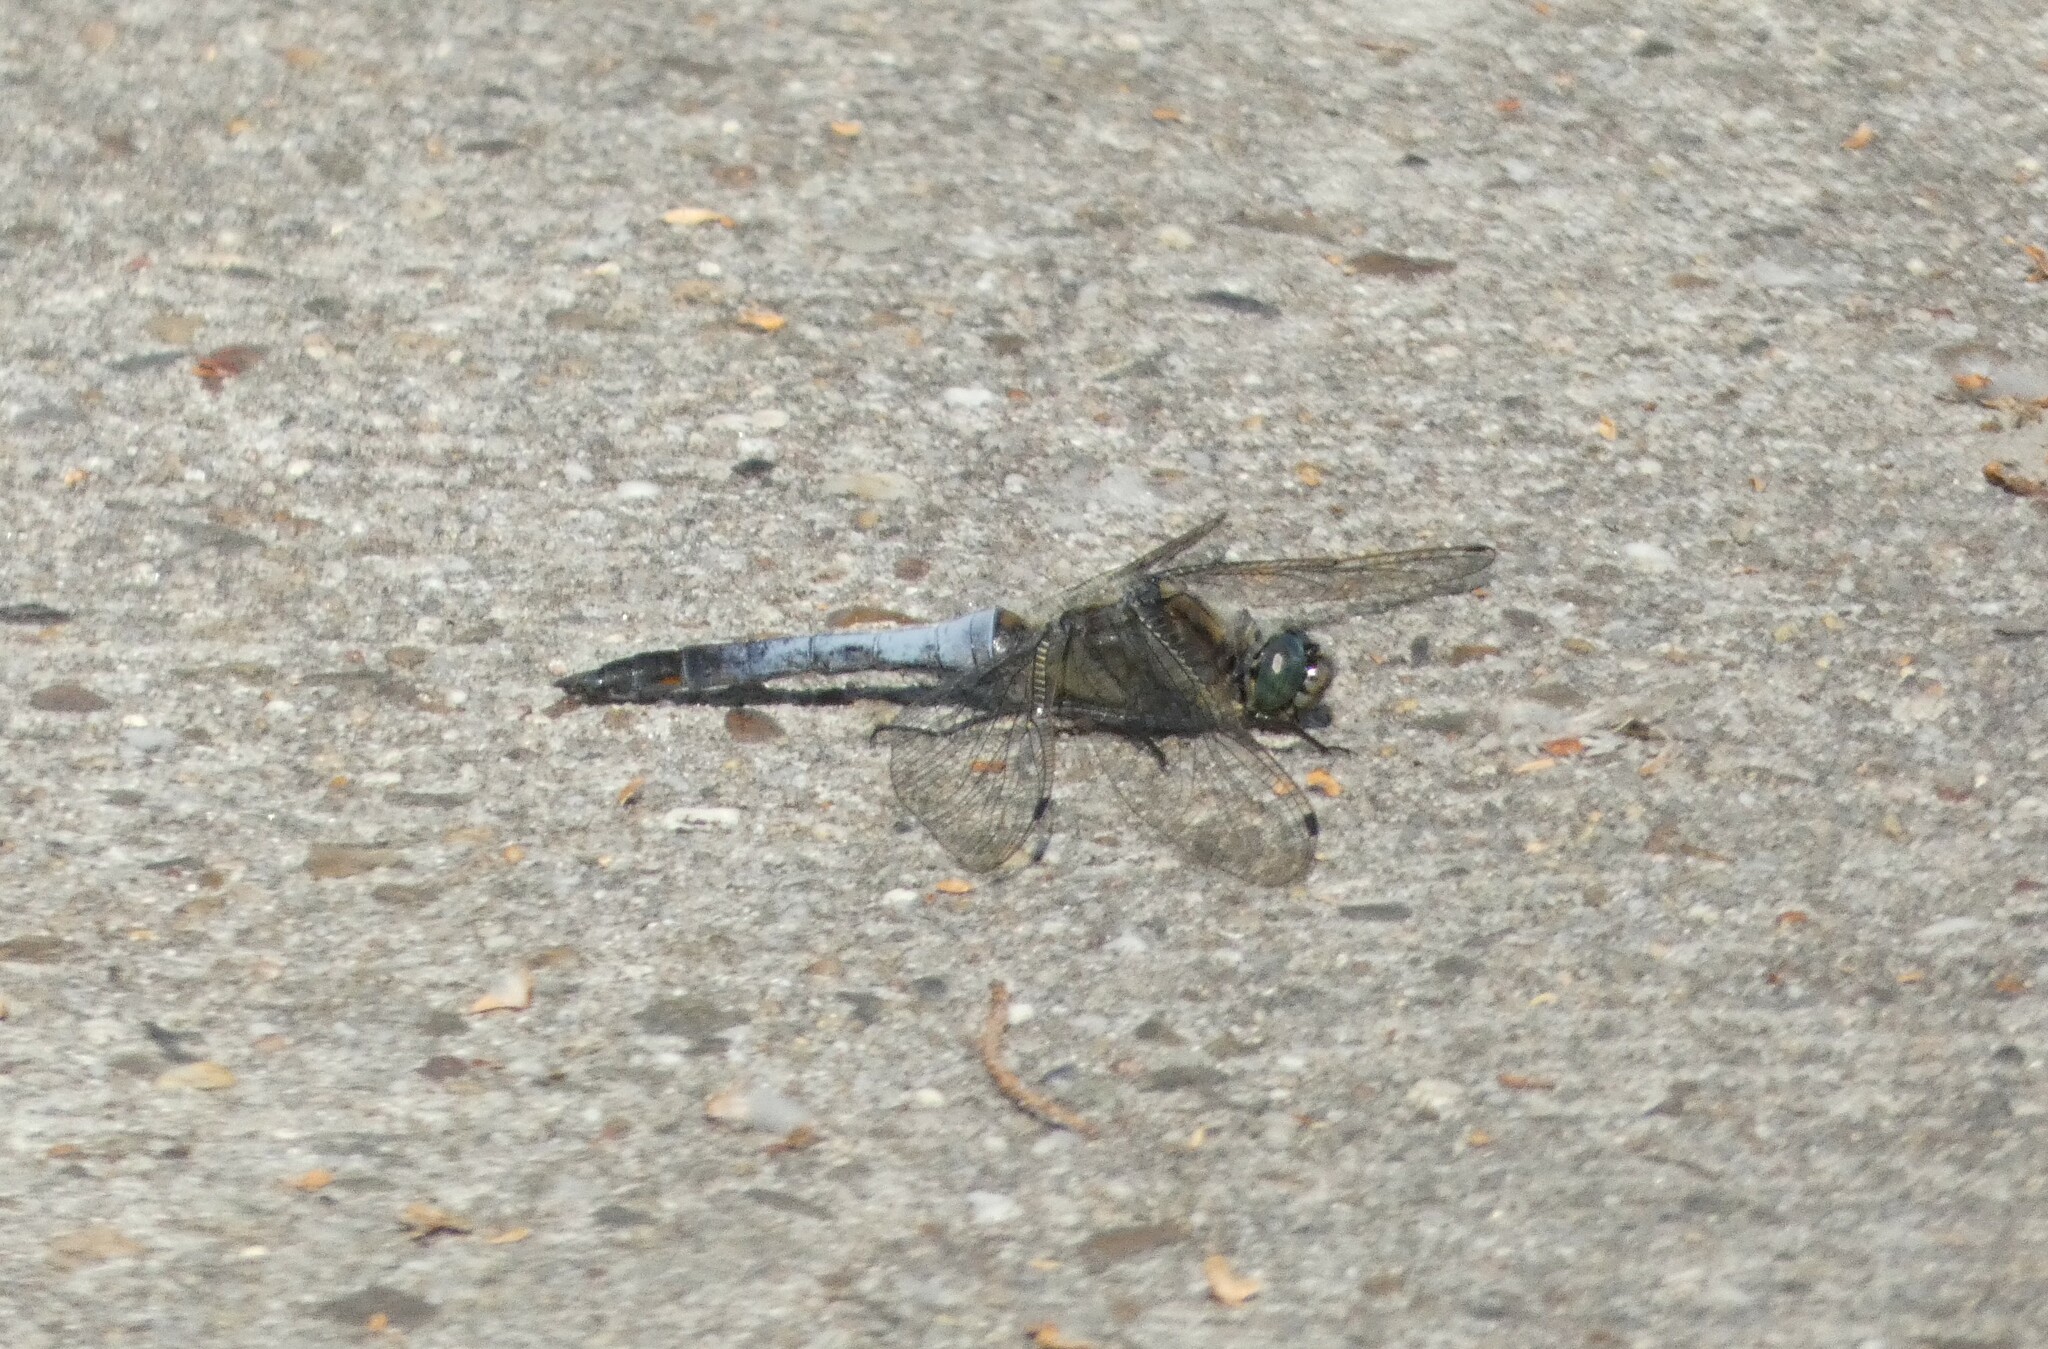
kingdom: Animalia
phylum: Arthropoda
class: Insecta
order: Odonata
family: Libellulidae
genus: Orthetrum
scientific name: Orthetrum cancellatum
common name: Black-tailed skimmer
